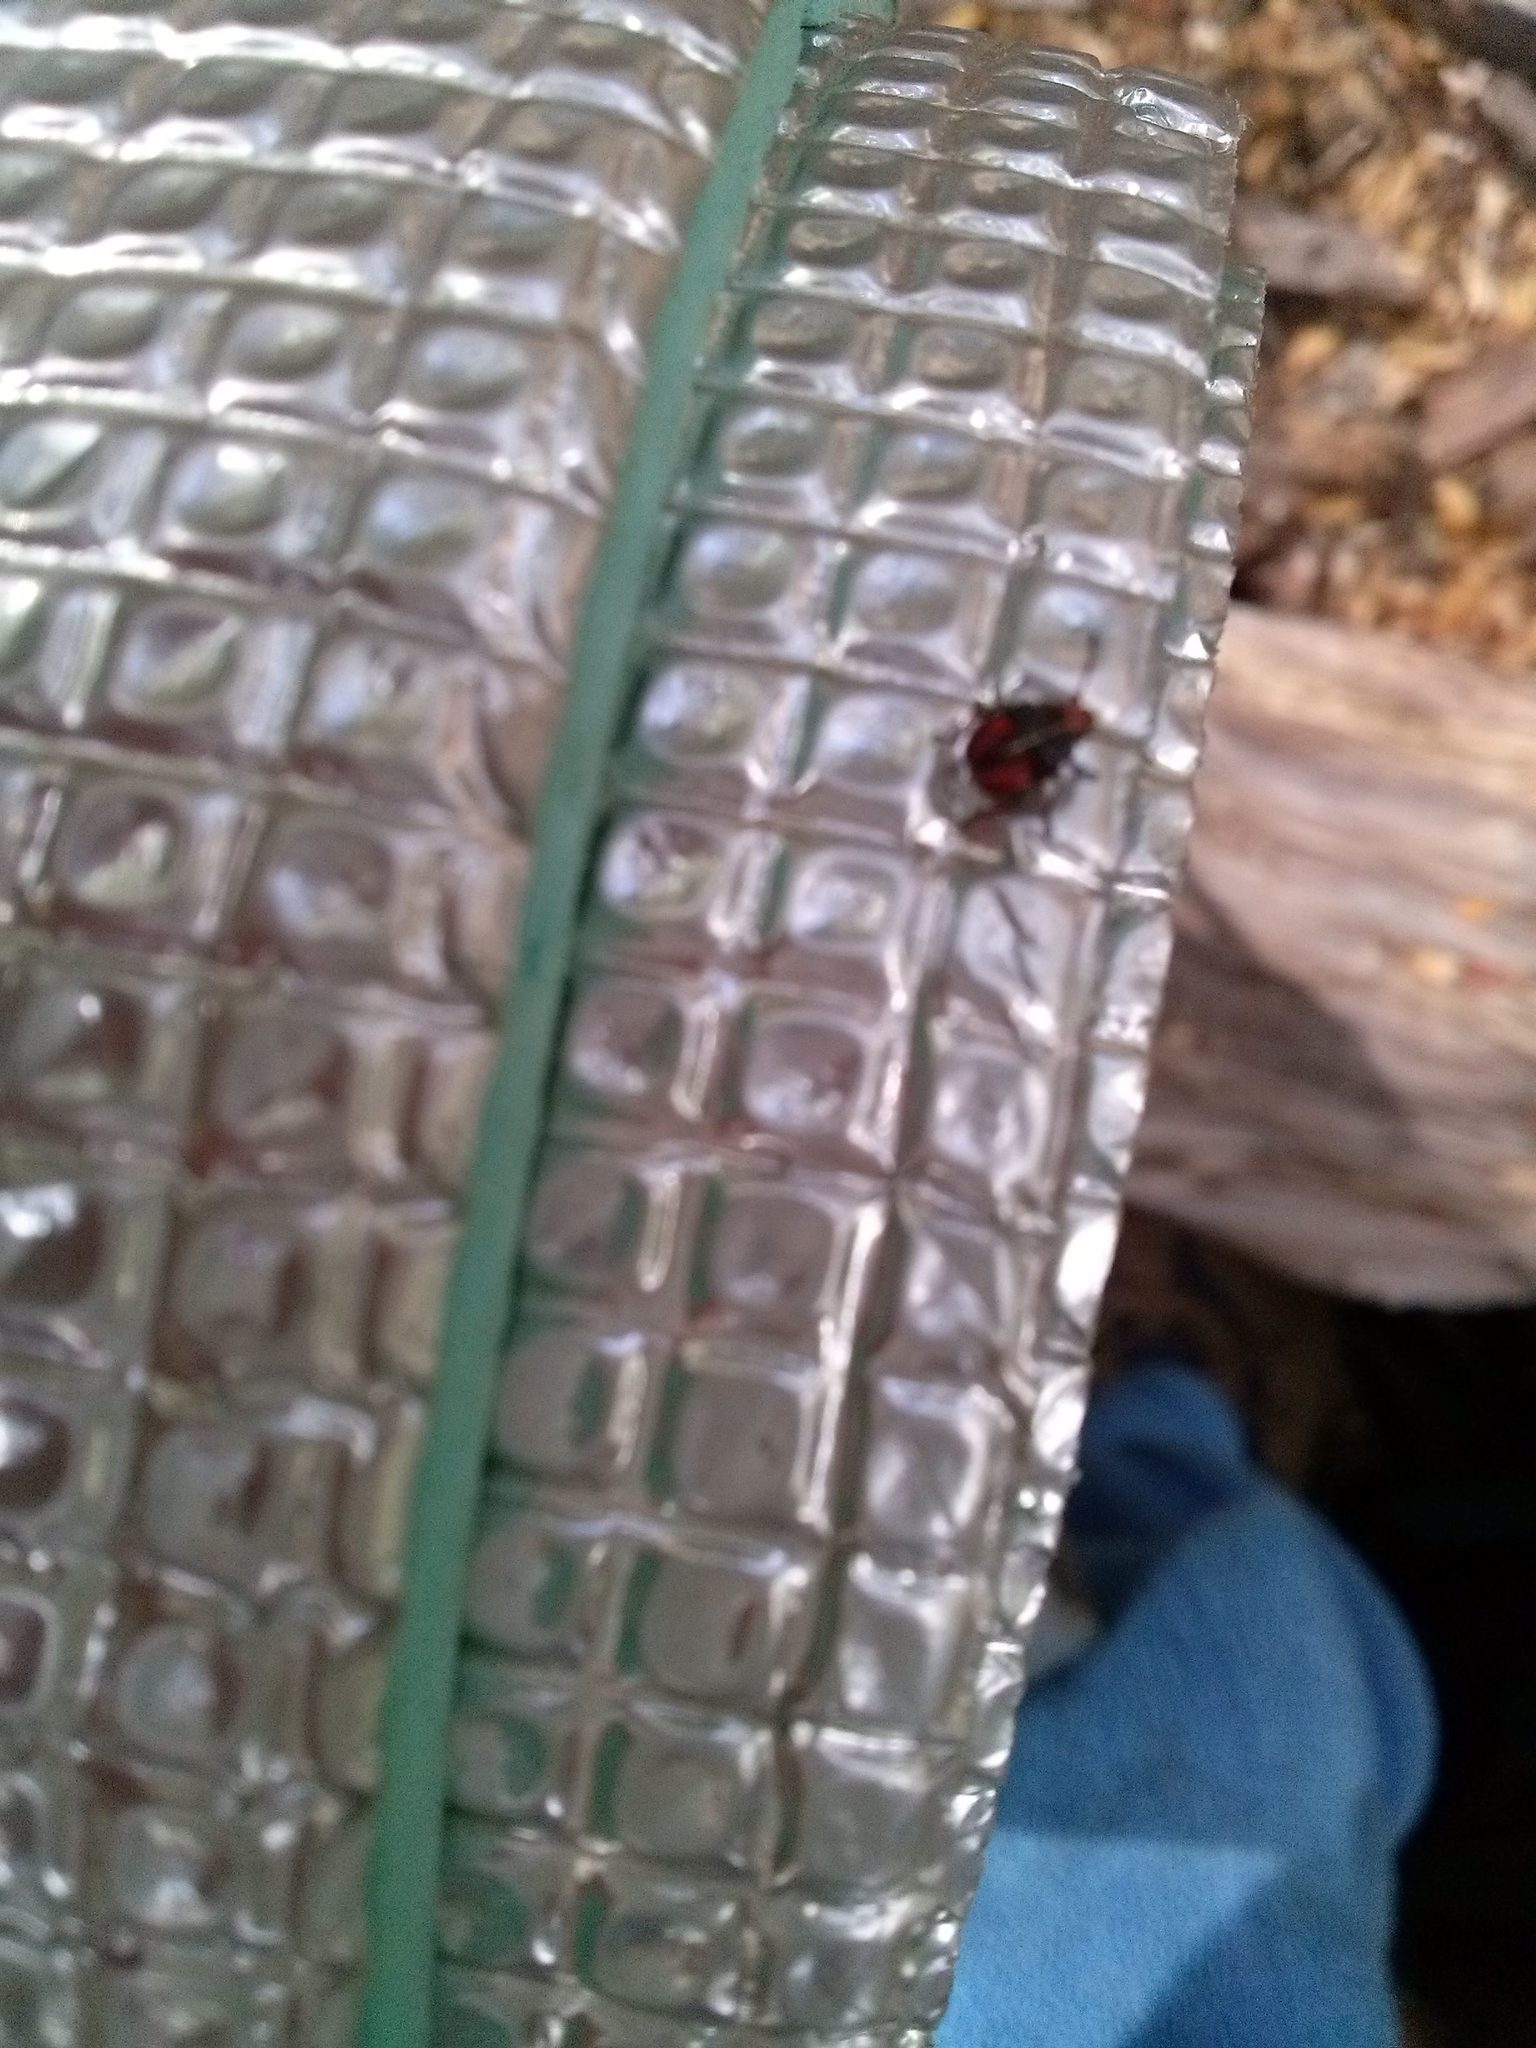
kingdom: Animalia
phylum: Arthropoda
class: Insecta
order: Hemiptera
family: Acanthosomatidae
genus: Phorbanta
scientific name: Phorbanta variabilis
